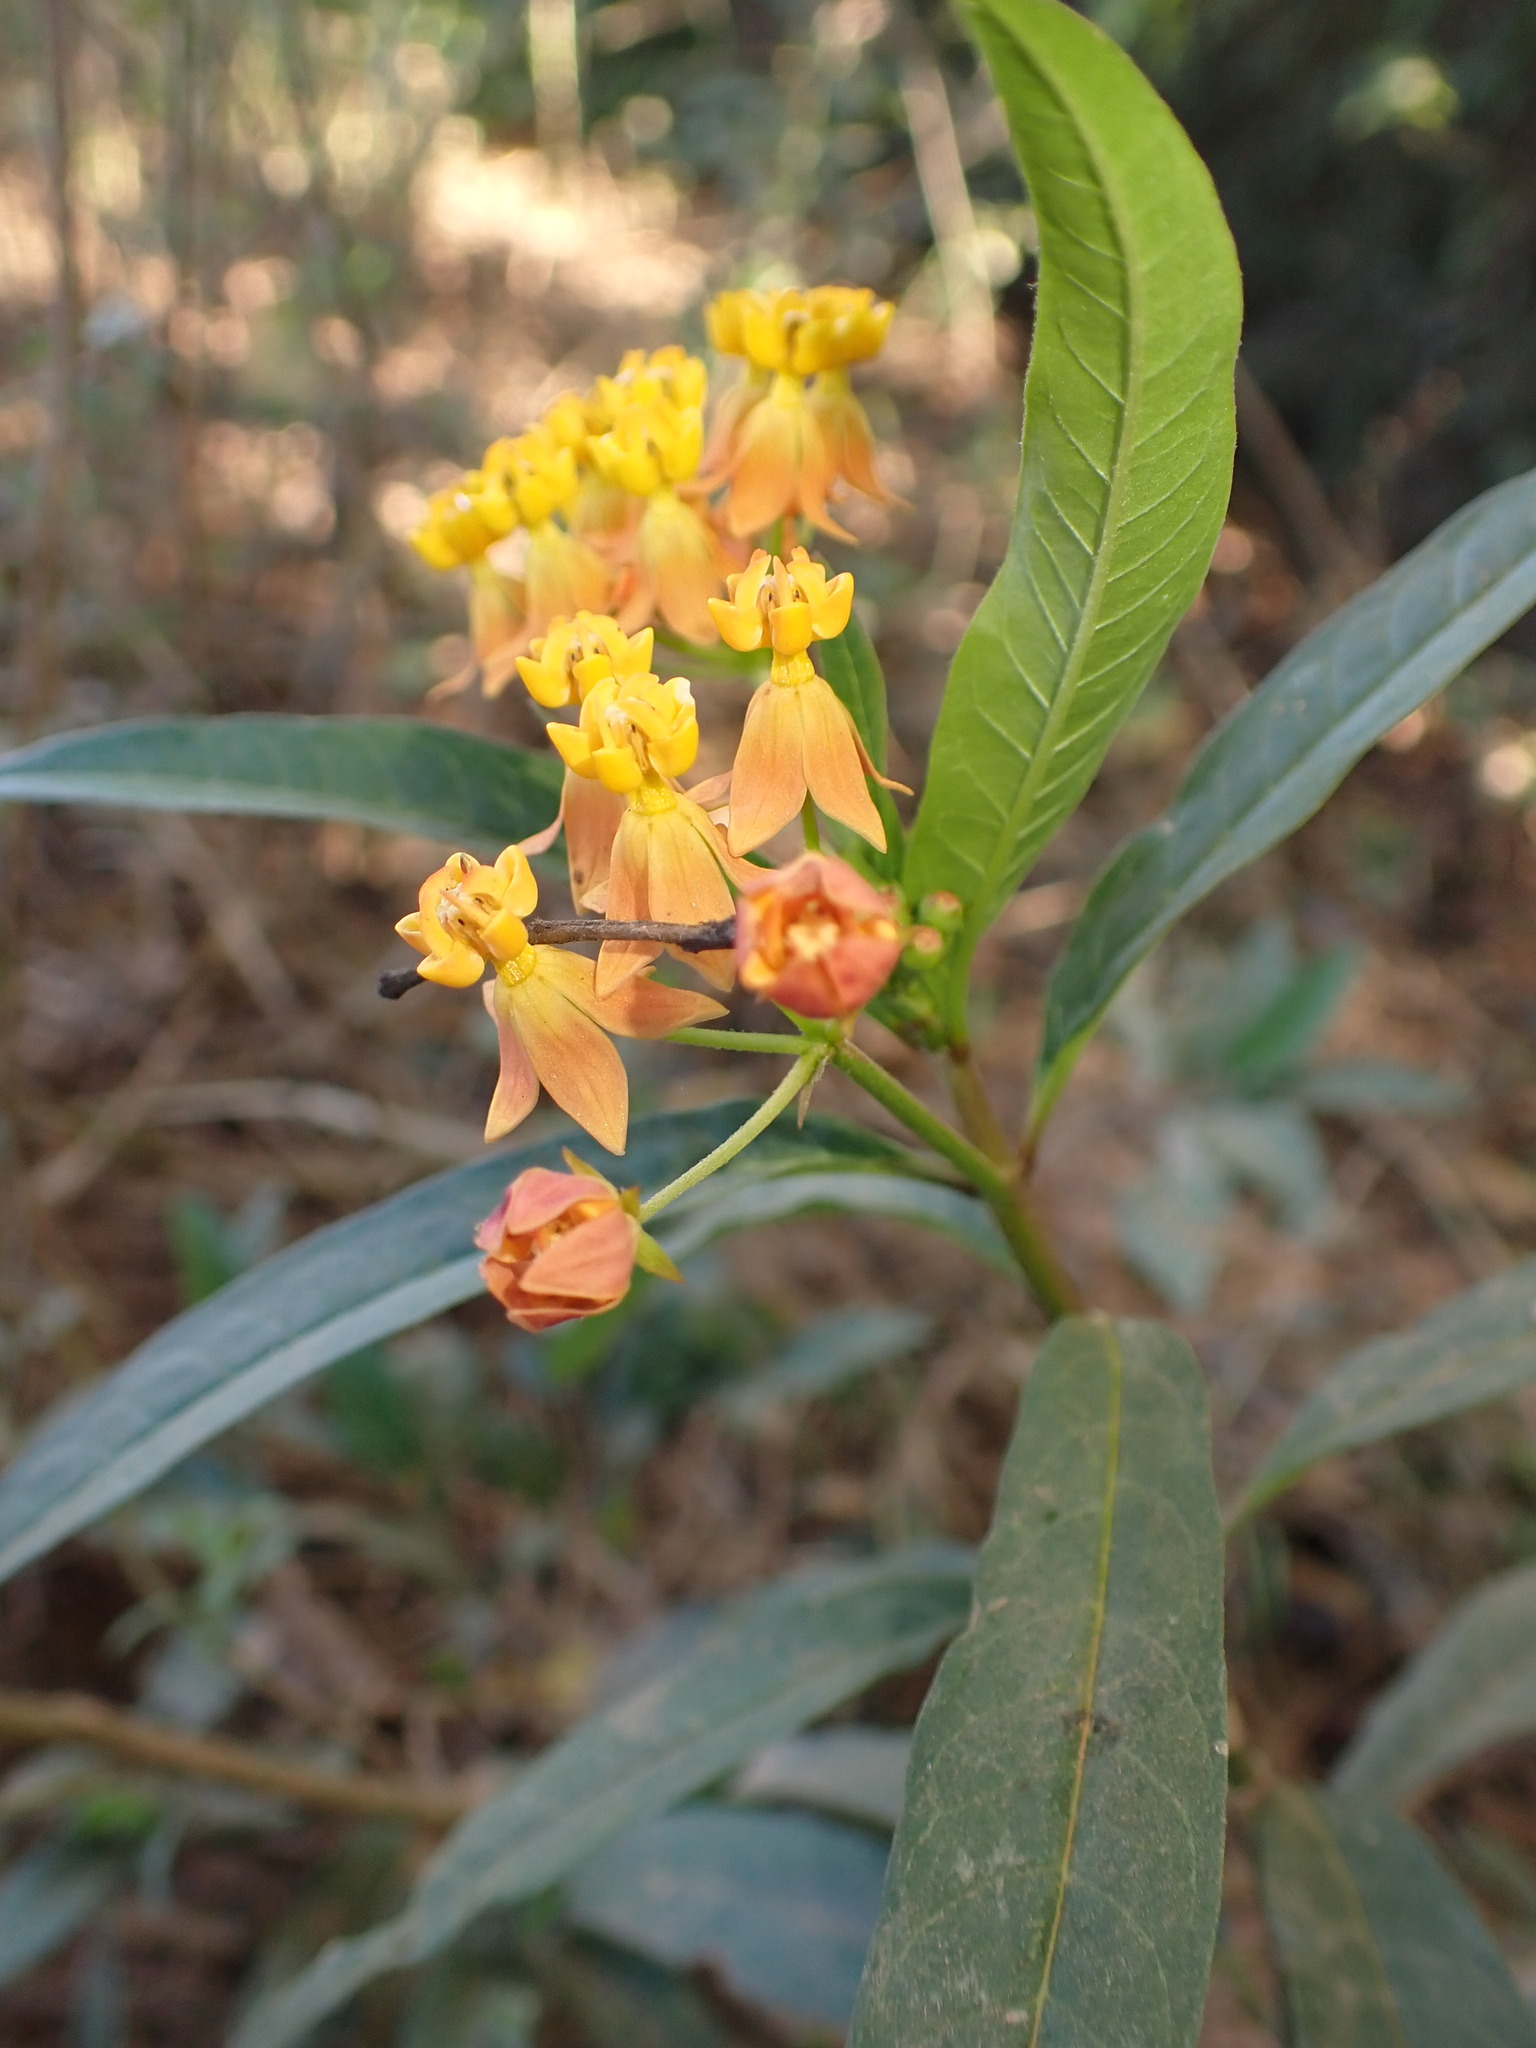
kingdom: Plantae
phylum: Tracheophyta
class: Magnoliopsida
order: Gentianales
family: Apocynaceae
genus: Asclepias
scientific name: Asclepias curassavica
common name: Bloodflower
